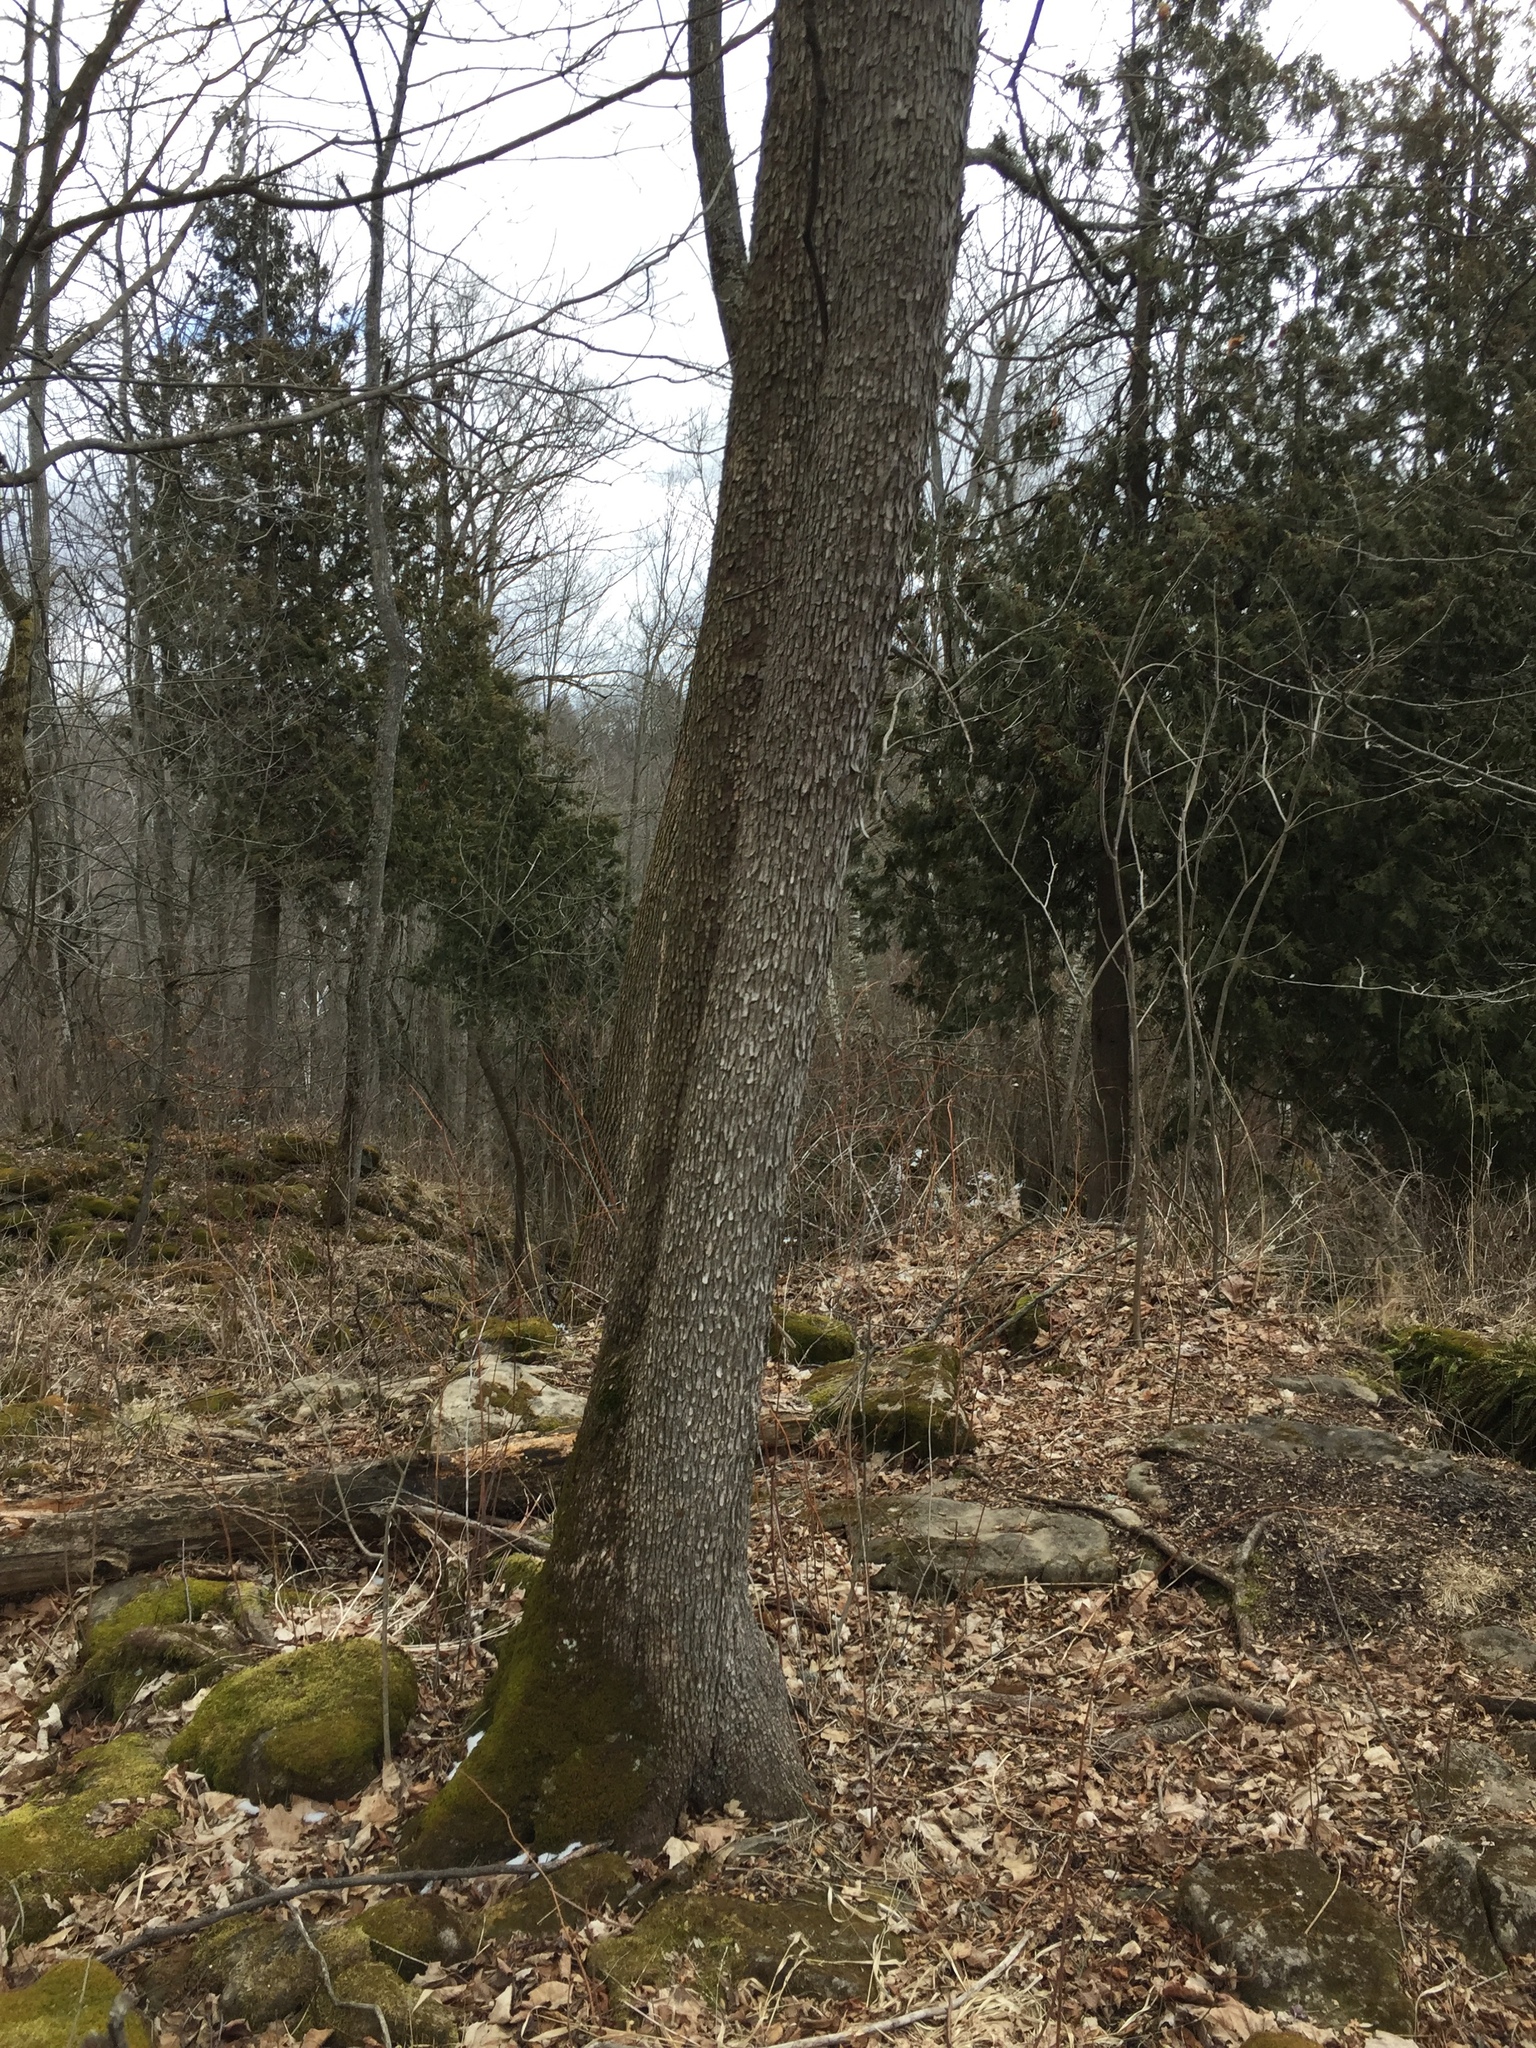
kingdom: Plantae
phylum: Tracheophyta
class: Magnoliopsida
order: Fagales
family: Betulaceae
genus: Ostrya
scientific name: Ostrya virginiana
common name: Ironwood
